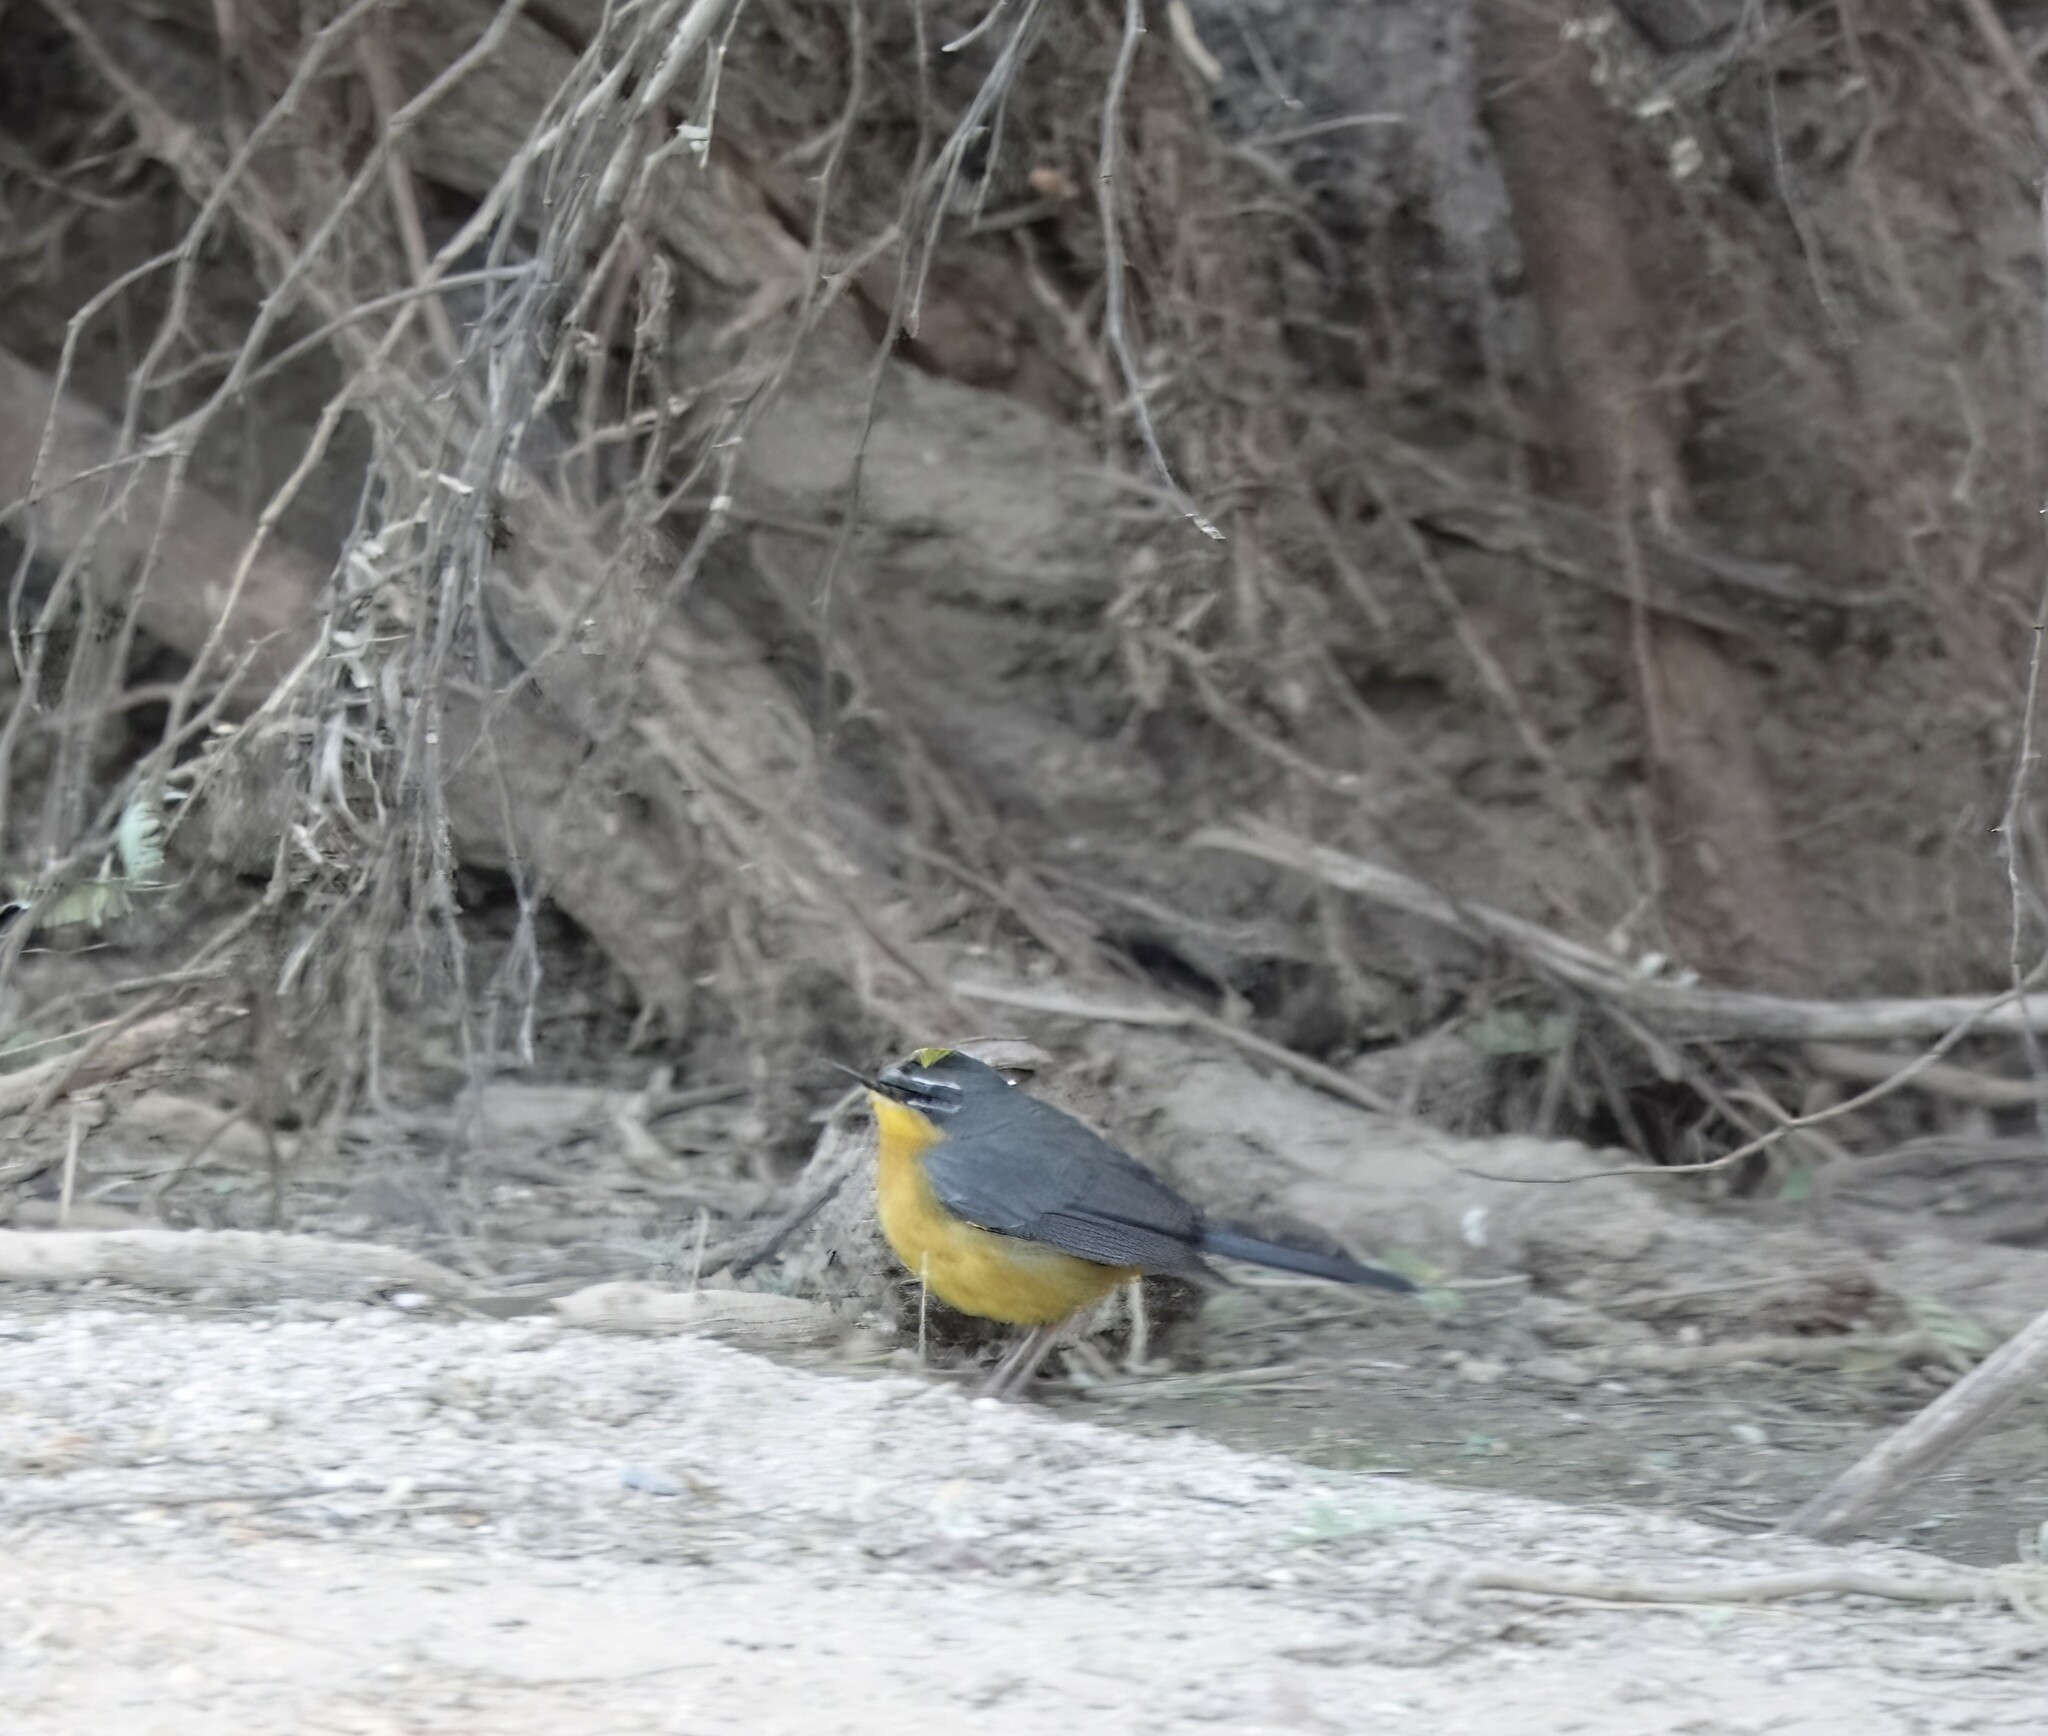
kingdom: Animalia
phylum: Chordata
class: Aves
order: Passeriformes
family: Parulidae
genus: Basileuterus
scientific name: Basileuterus lachrymosus
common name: Fan-tailed warbler
